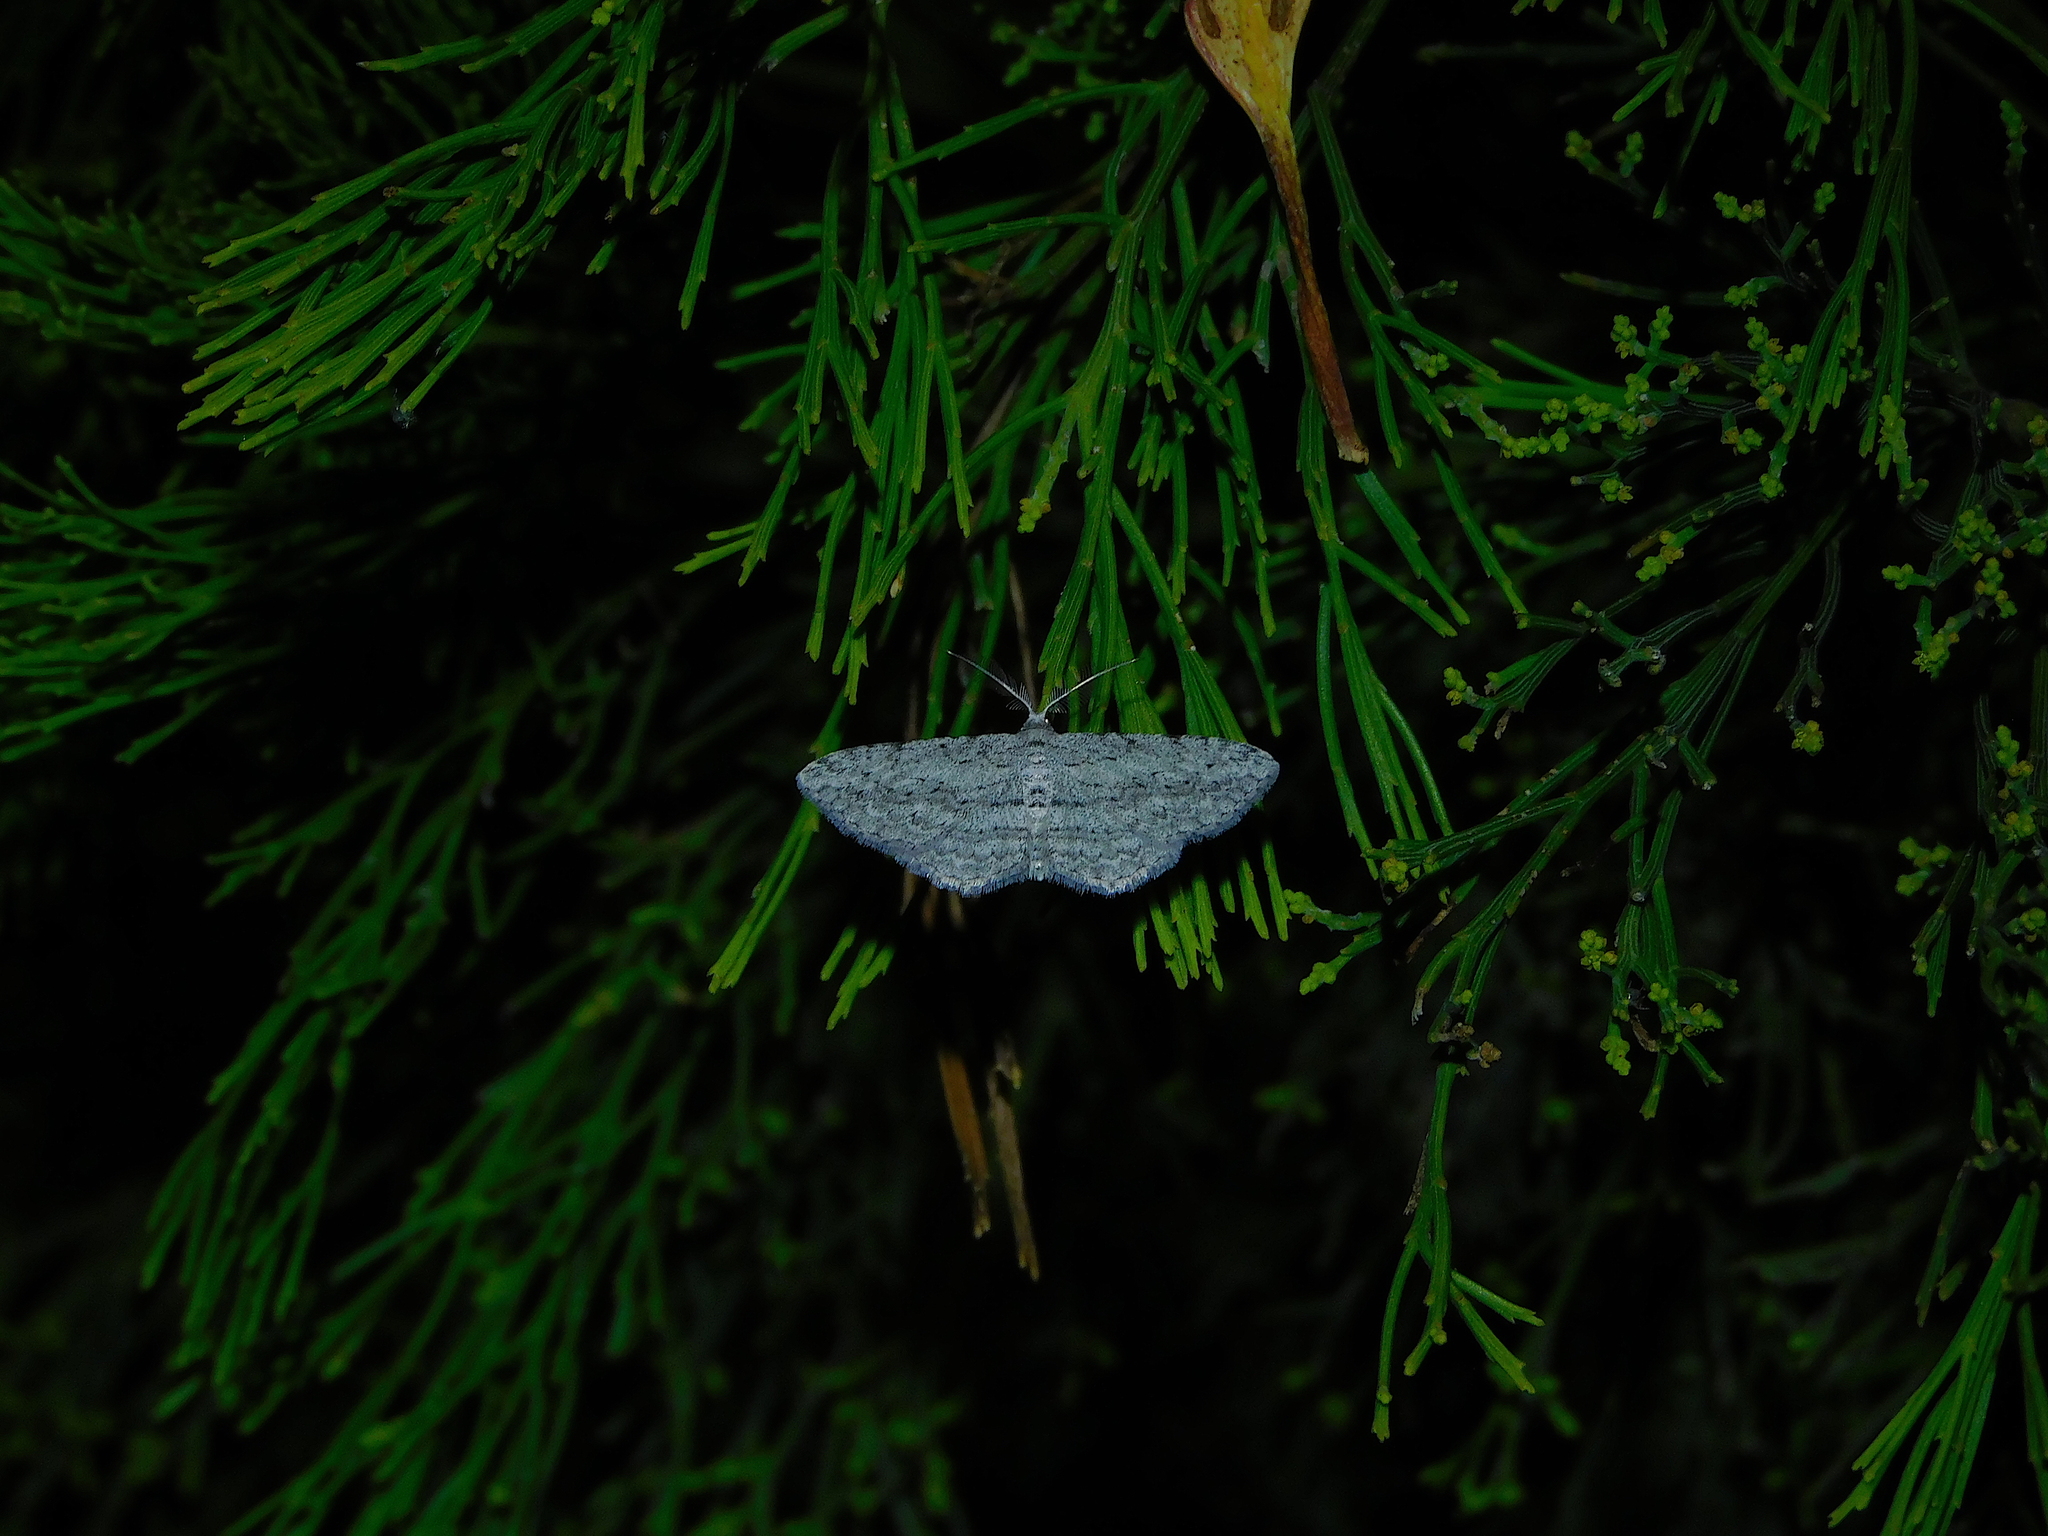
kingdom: Animalia
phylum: Arthropoda
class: Insecta
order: Lepidoptera
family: Geometridae
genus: Phelotis
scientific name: Phelotis cognata
